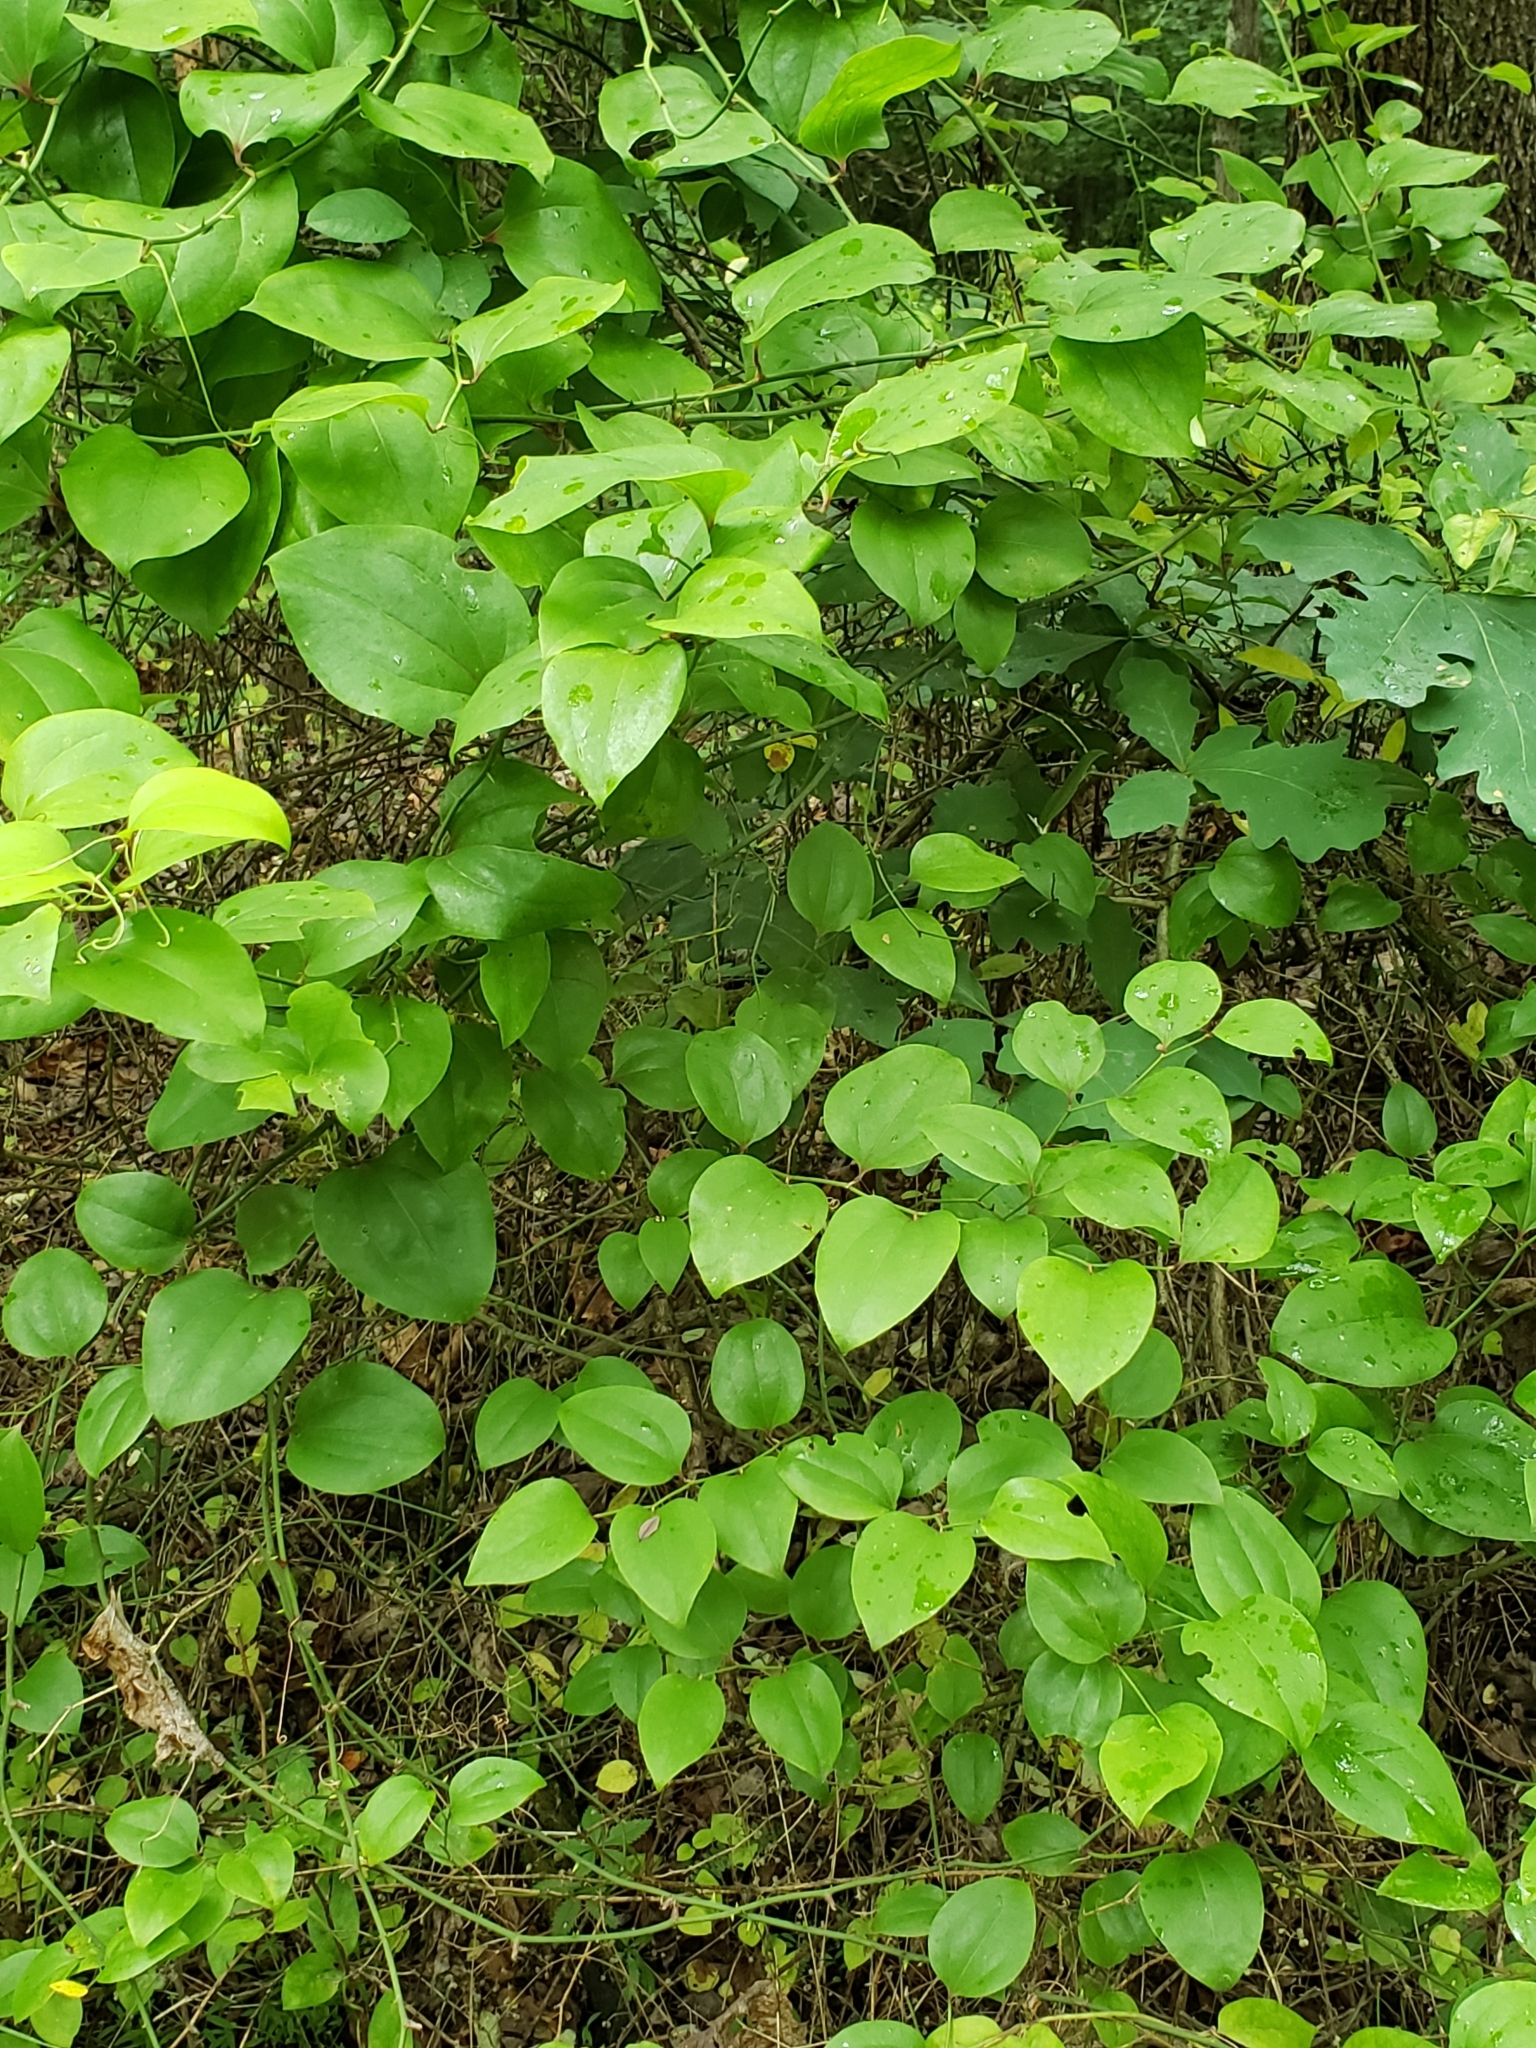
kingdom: Plantae
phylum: Tracheophyta
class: Liliopsida
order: Liliales
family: Smilacaceae
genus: Smilax
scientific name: Smilax rotundifolia
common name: Bullbriar
